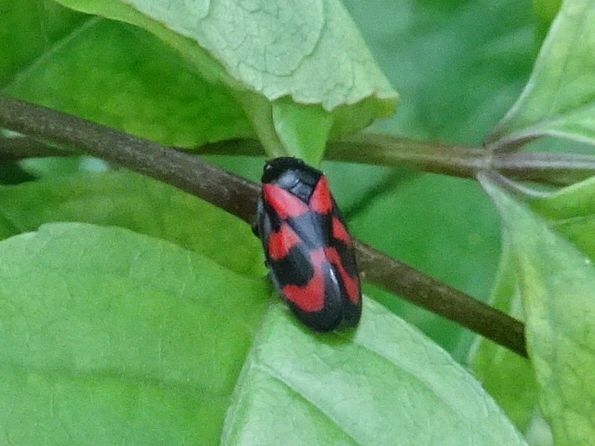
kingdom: Animalia
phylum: Arthropoda
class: Insecta
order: Hemiptera
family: Cercopidae
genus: Cercopis
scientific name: Cercopis vulnerata
